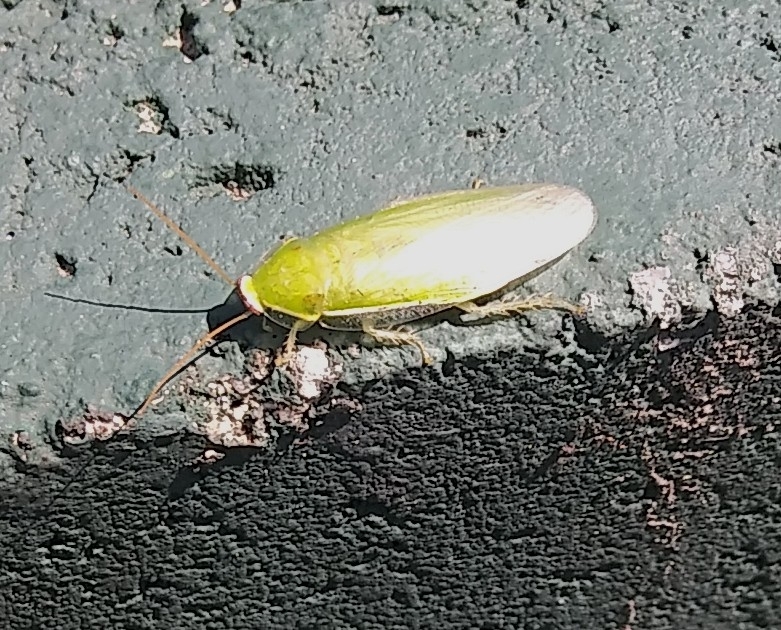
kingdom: Animalia
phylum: Arthropoda
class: Insecta
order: Blattodea
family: Blaberidae
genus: Panchlora
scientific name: Panchlora nivea
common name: Cuban cockroach
